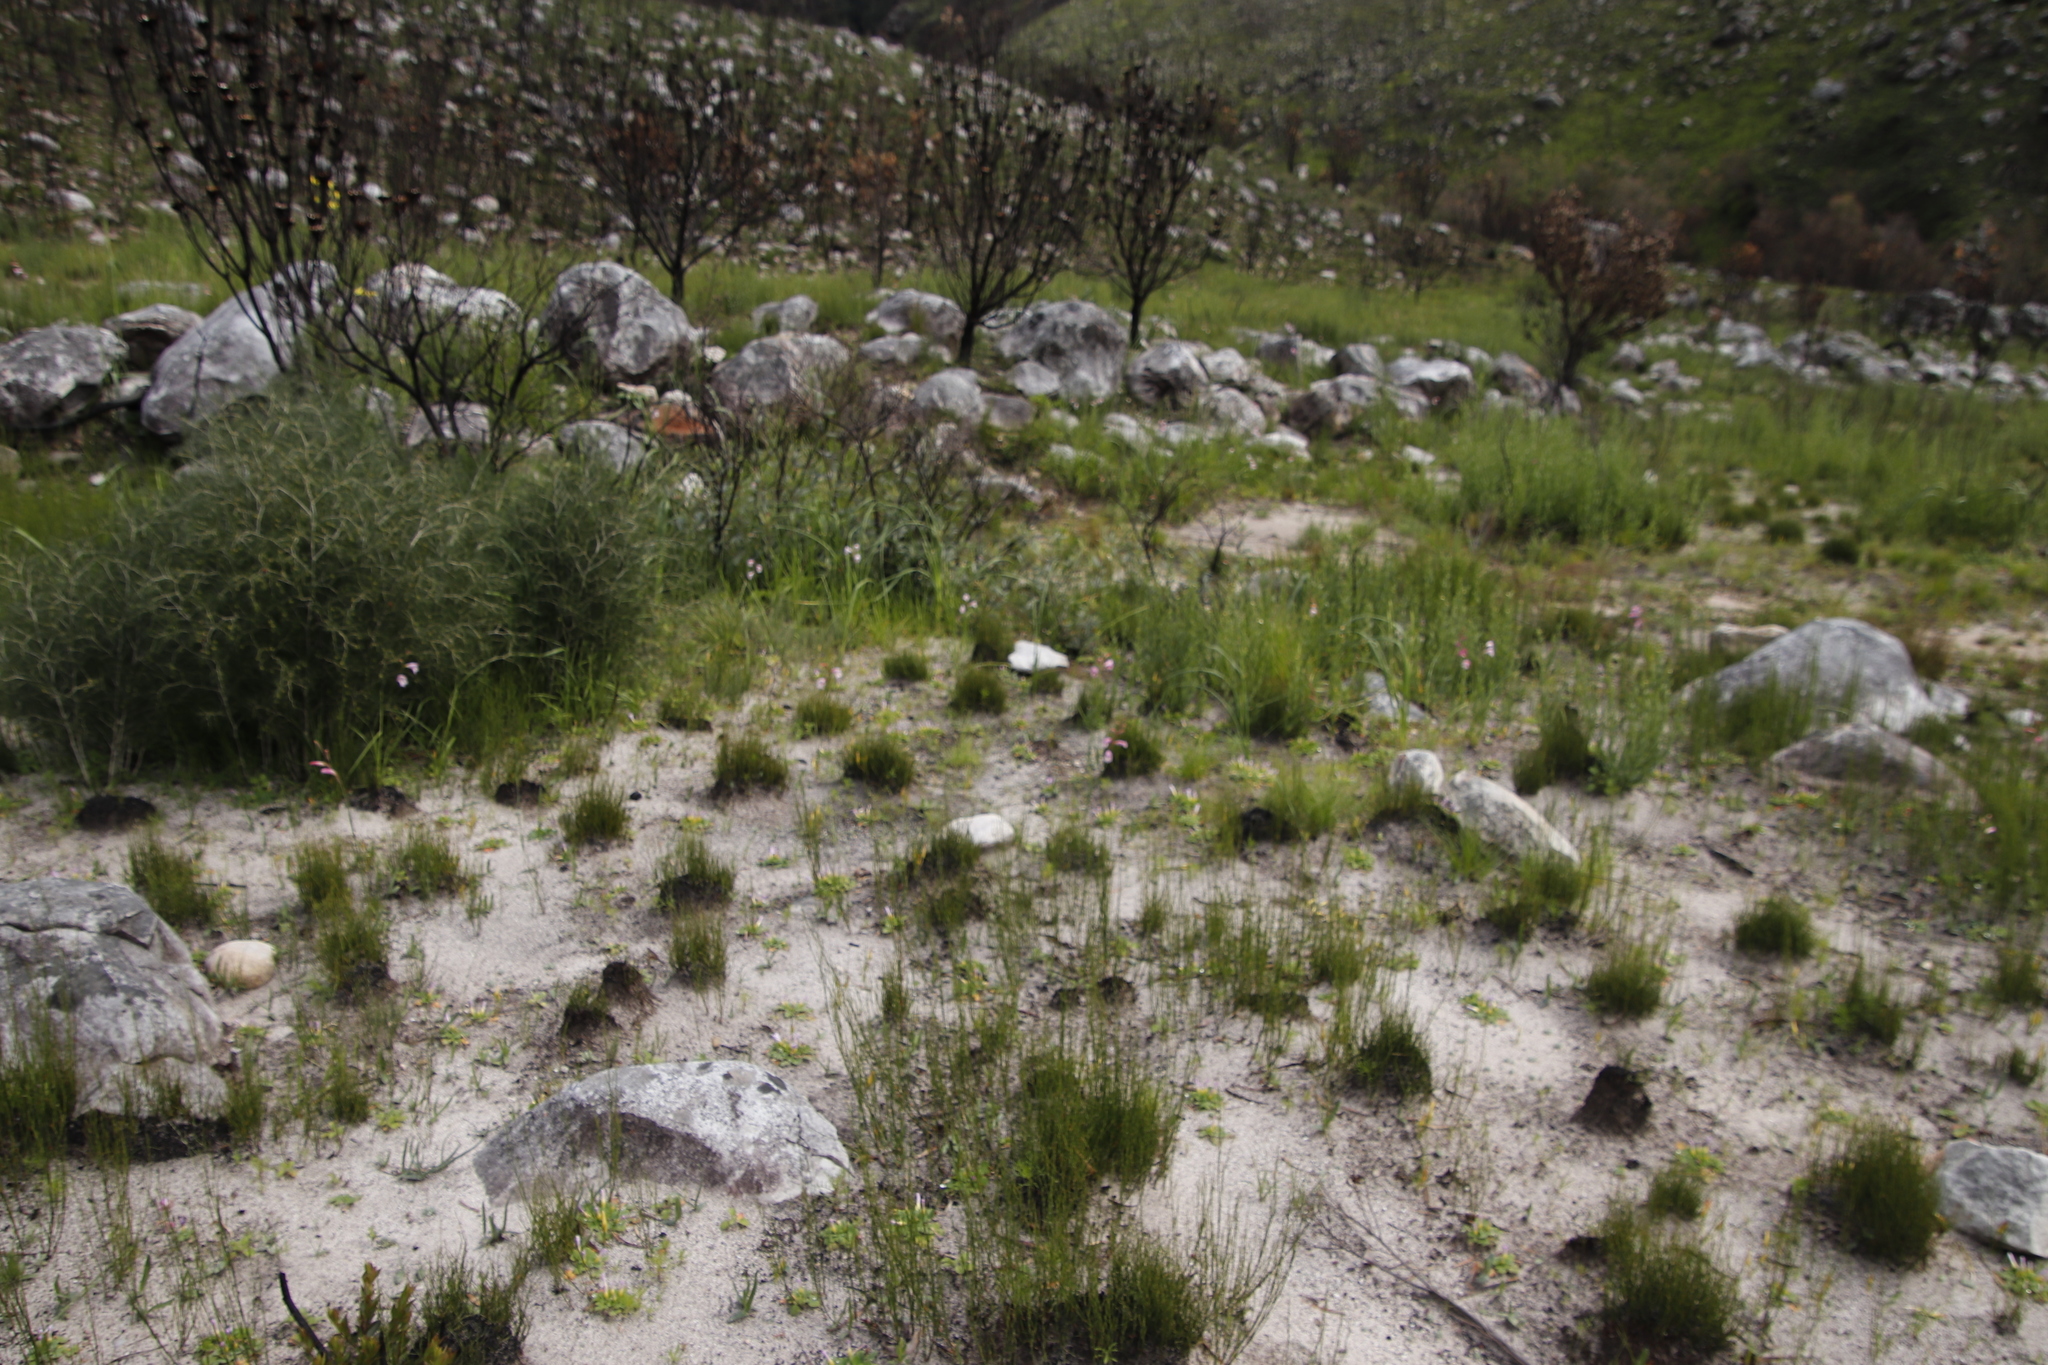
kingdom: Plantae
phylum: Tracheophyta
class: Liliopsida
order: Asparagales
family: Iridaceae
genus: Gladiolus
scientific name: Gladiolus hirsutus
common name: Small pink afrikaner
